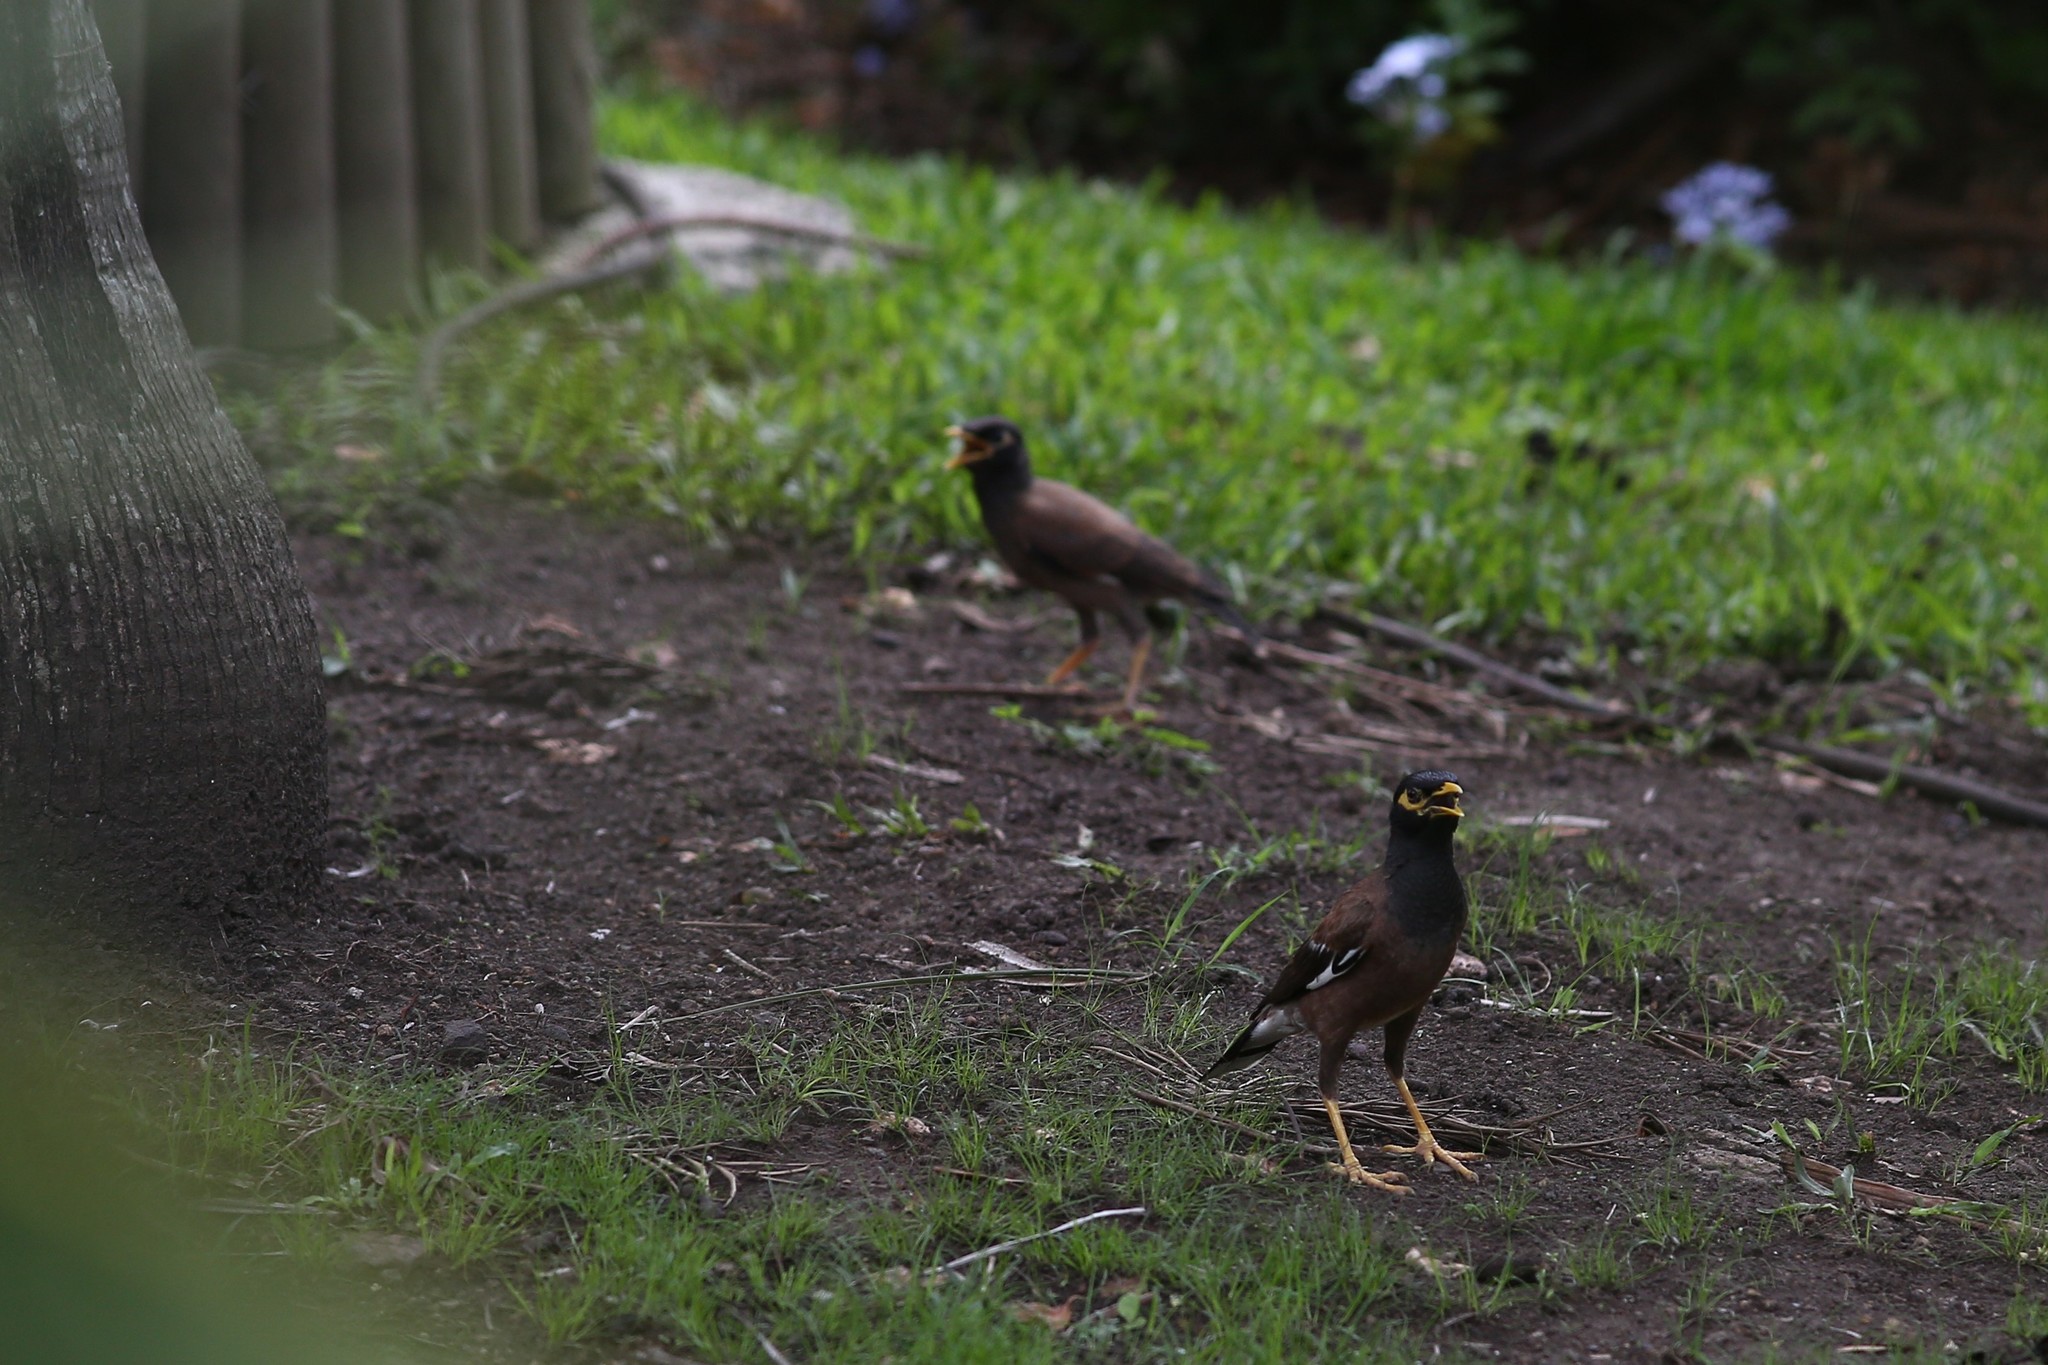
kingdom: Animalia
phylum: Chordata
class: Aves
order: Passeriformes
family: Sturnidae
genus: Acridotheres
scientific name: Acridotheres tristis
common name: Common myna
